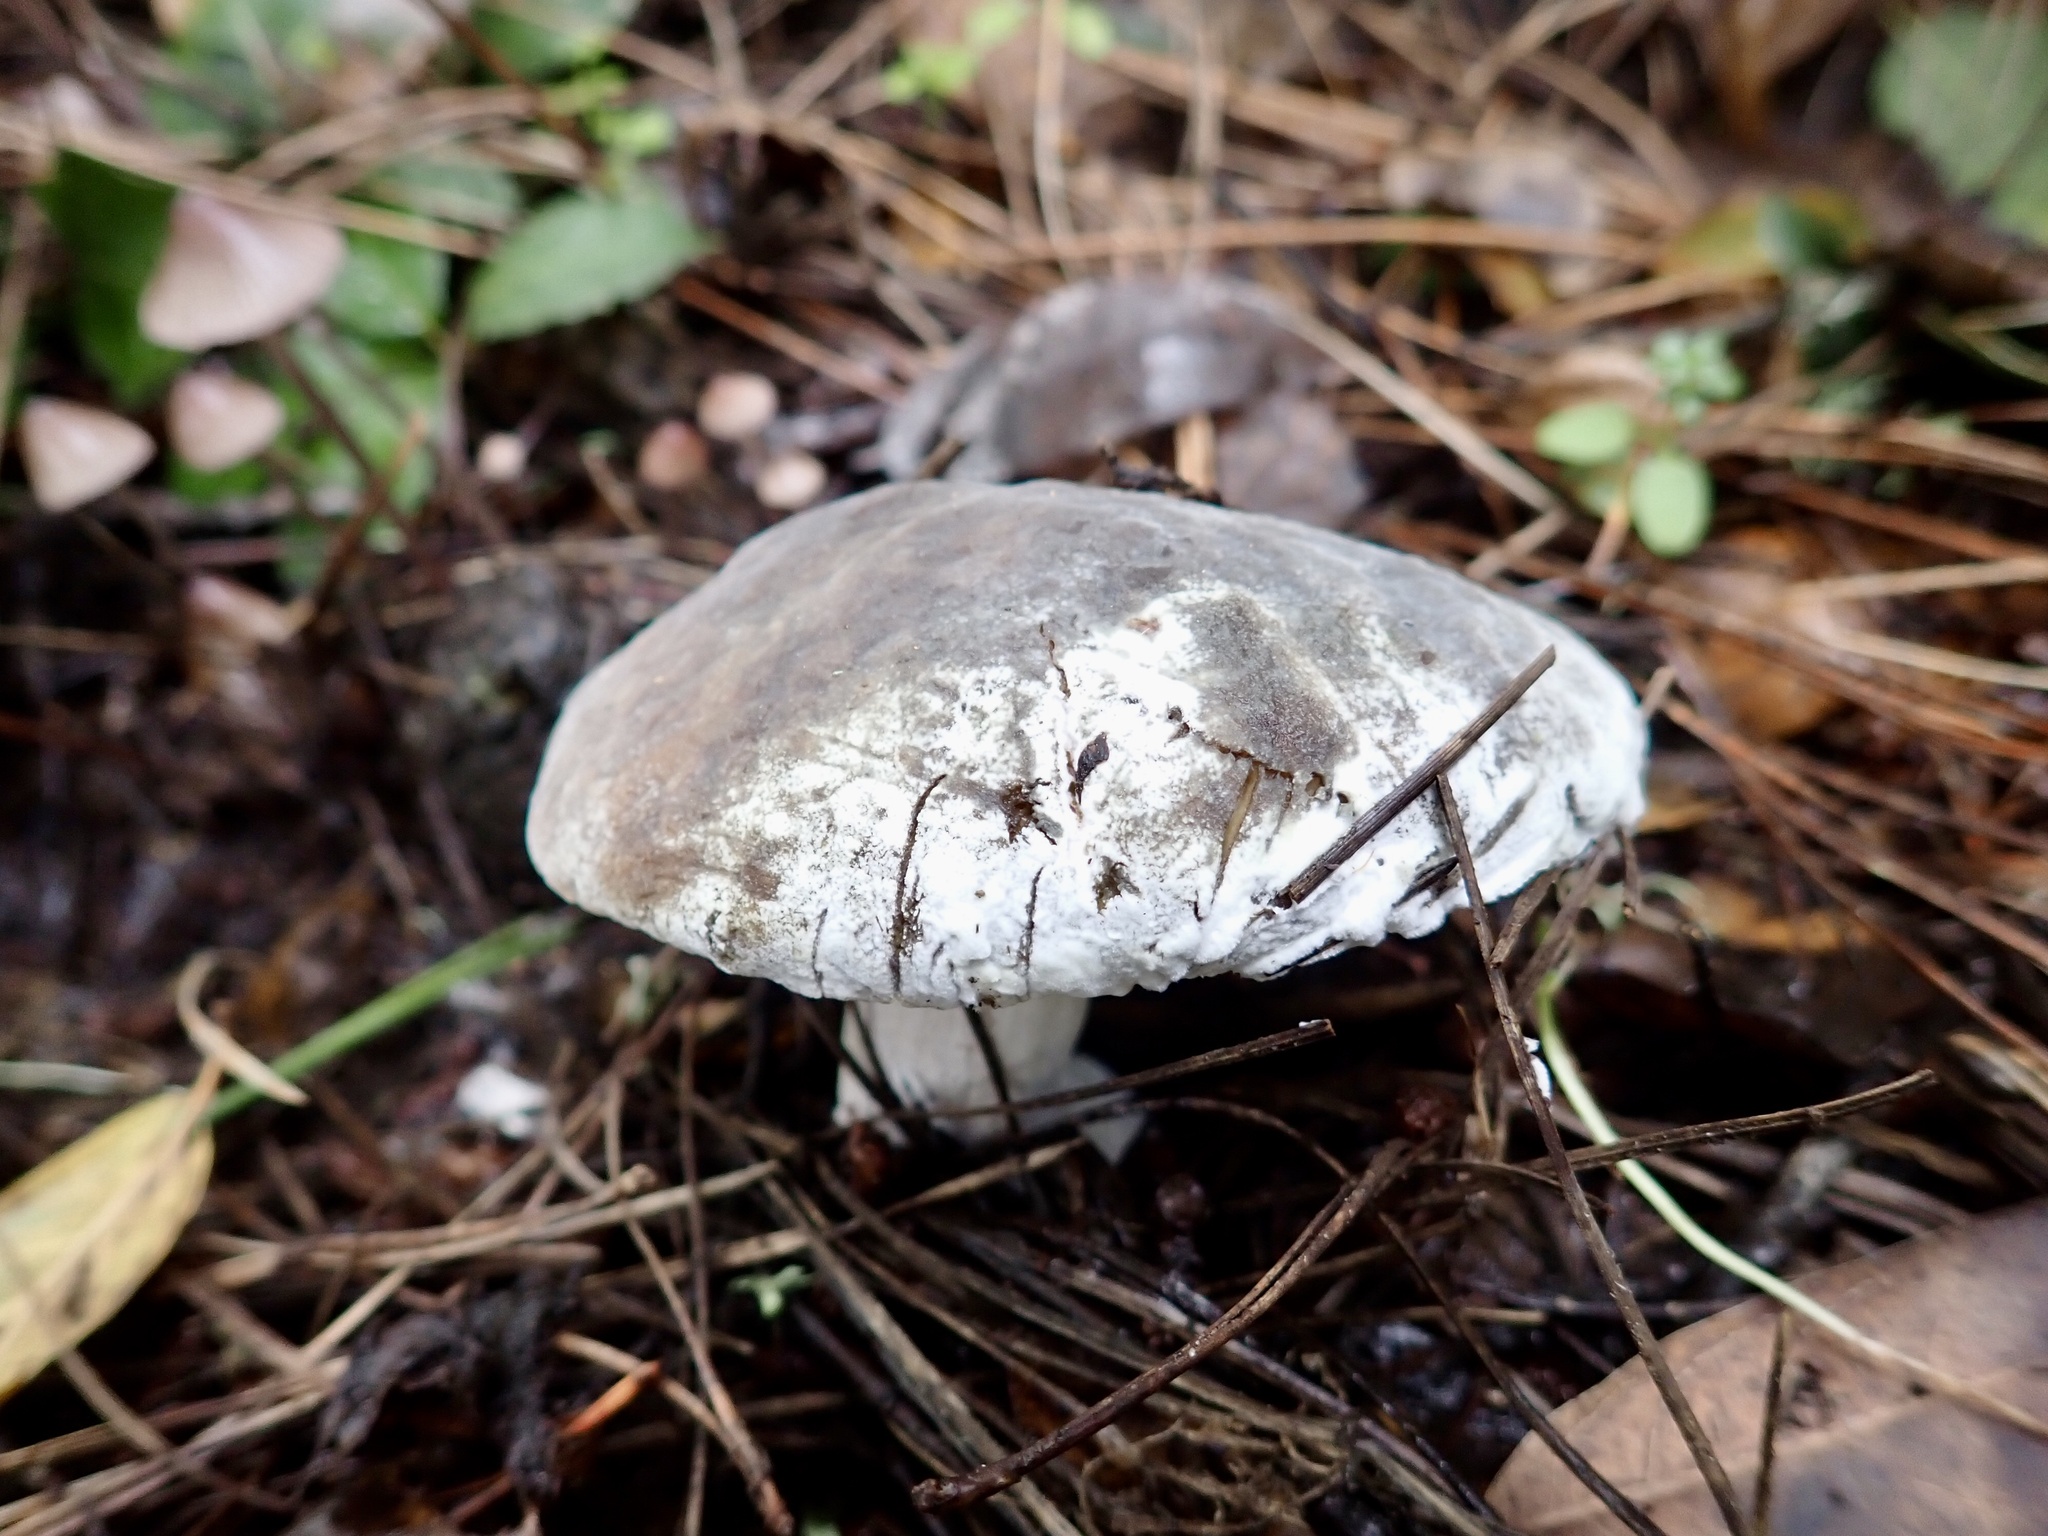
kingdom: Fungi
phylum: Ascomycota
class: Sordariomycetes
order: Hypocreales
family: Hypocreaceae
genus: Hypomyces
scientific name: Hypomyces microspermus
